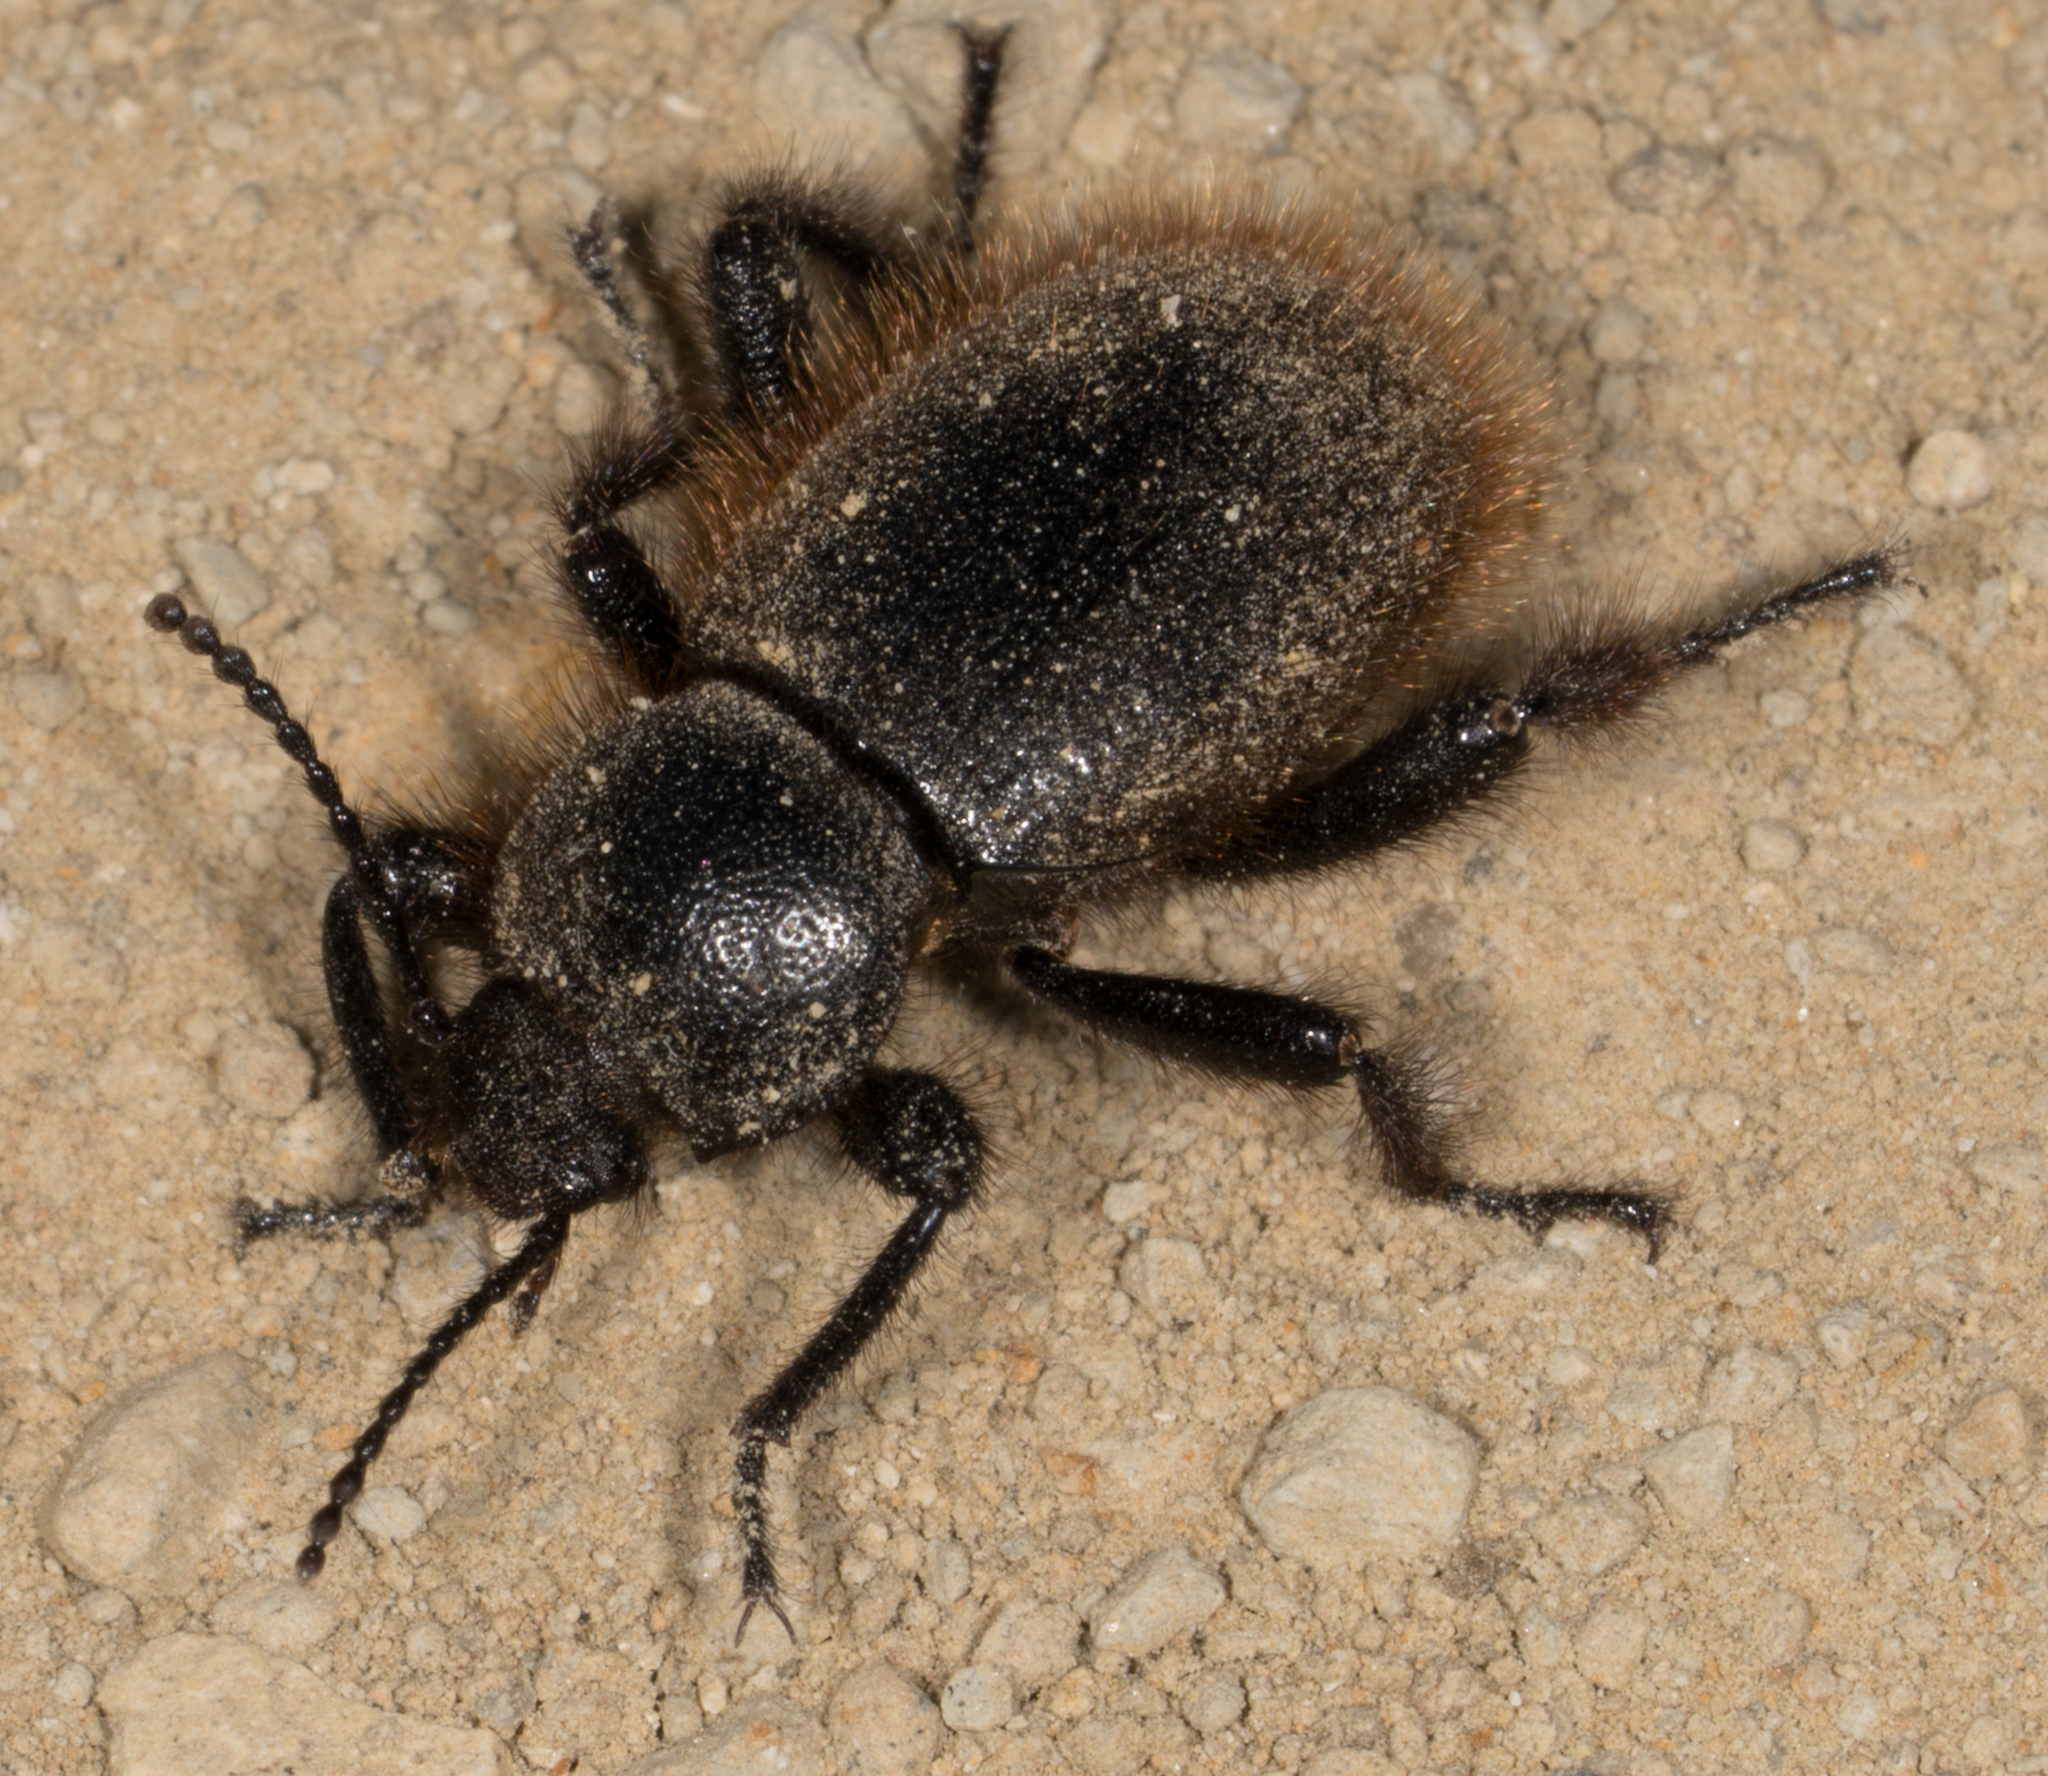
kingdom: Animalia
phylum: Arthropoda
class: Insecta
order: Coleoptera
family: Tenebrionidae
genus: Eleodes
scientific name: Eleodes osculans
